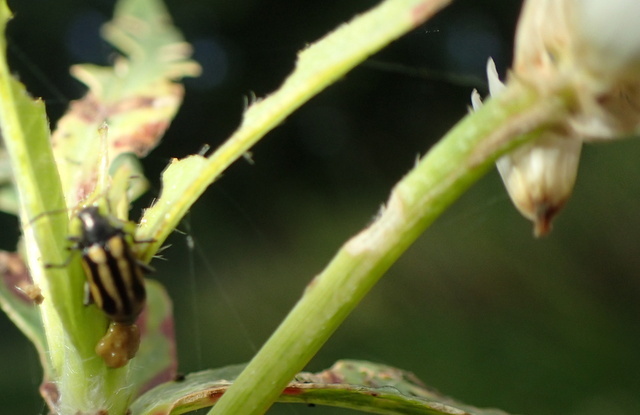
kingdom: Animalia
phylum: Arthropoda
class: Insecta
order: Coleoptera
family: Chrysomelidae
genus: Agasicles
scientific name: Agasicles hygrophila
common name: Alligatorweed flea beetle
